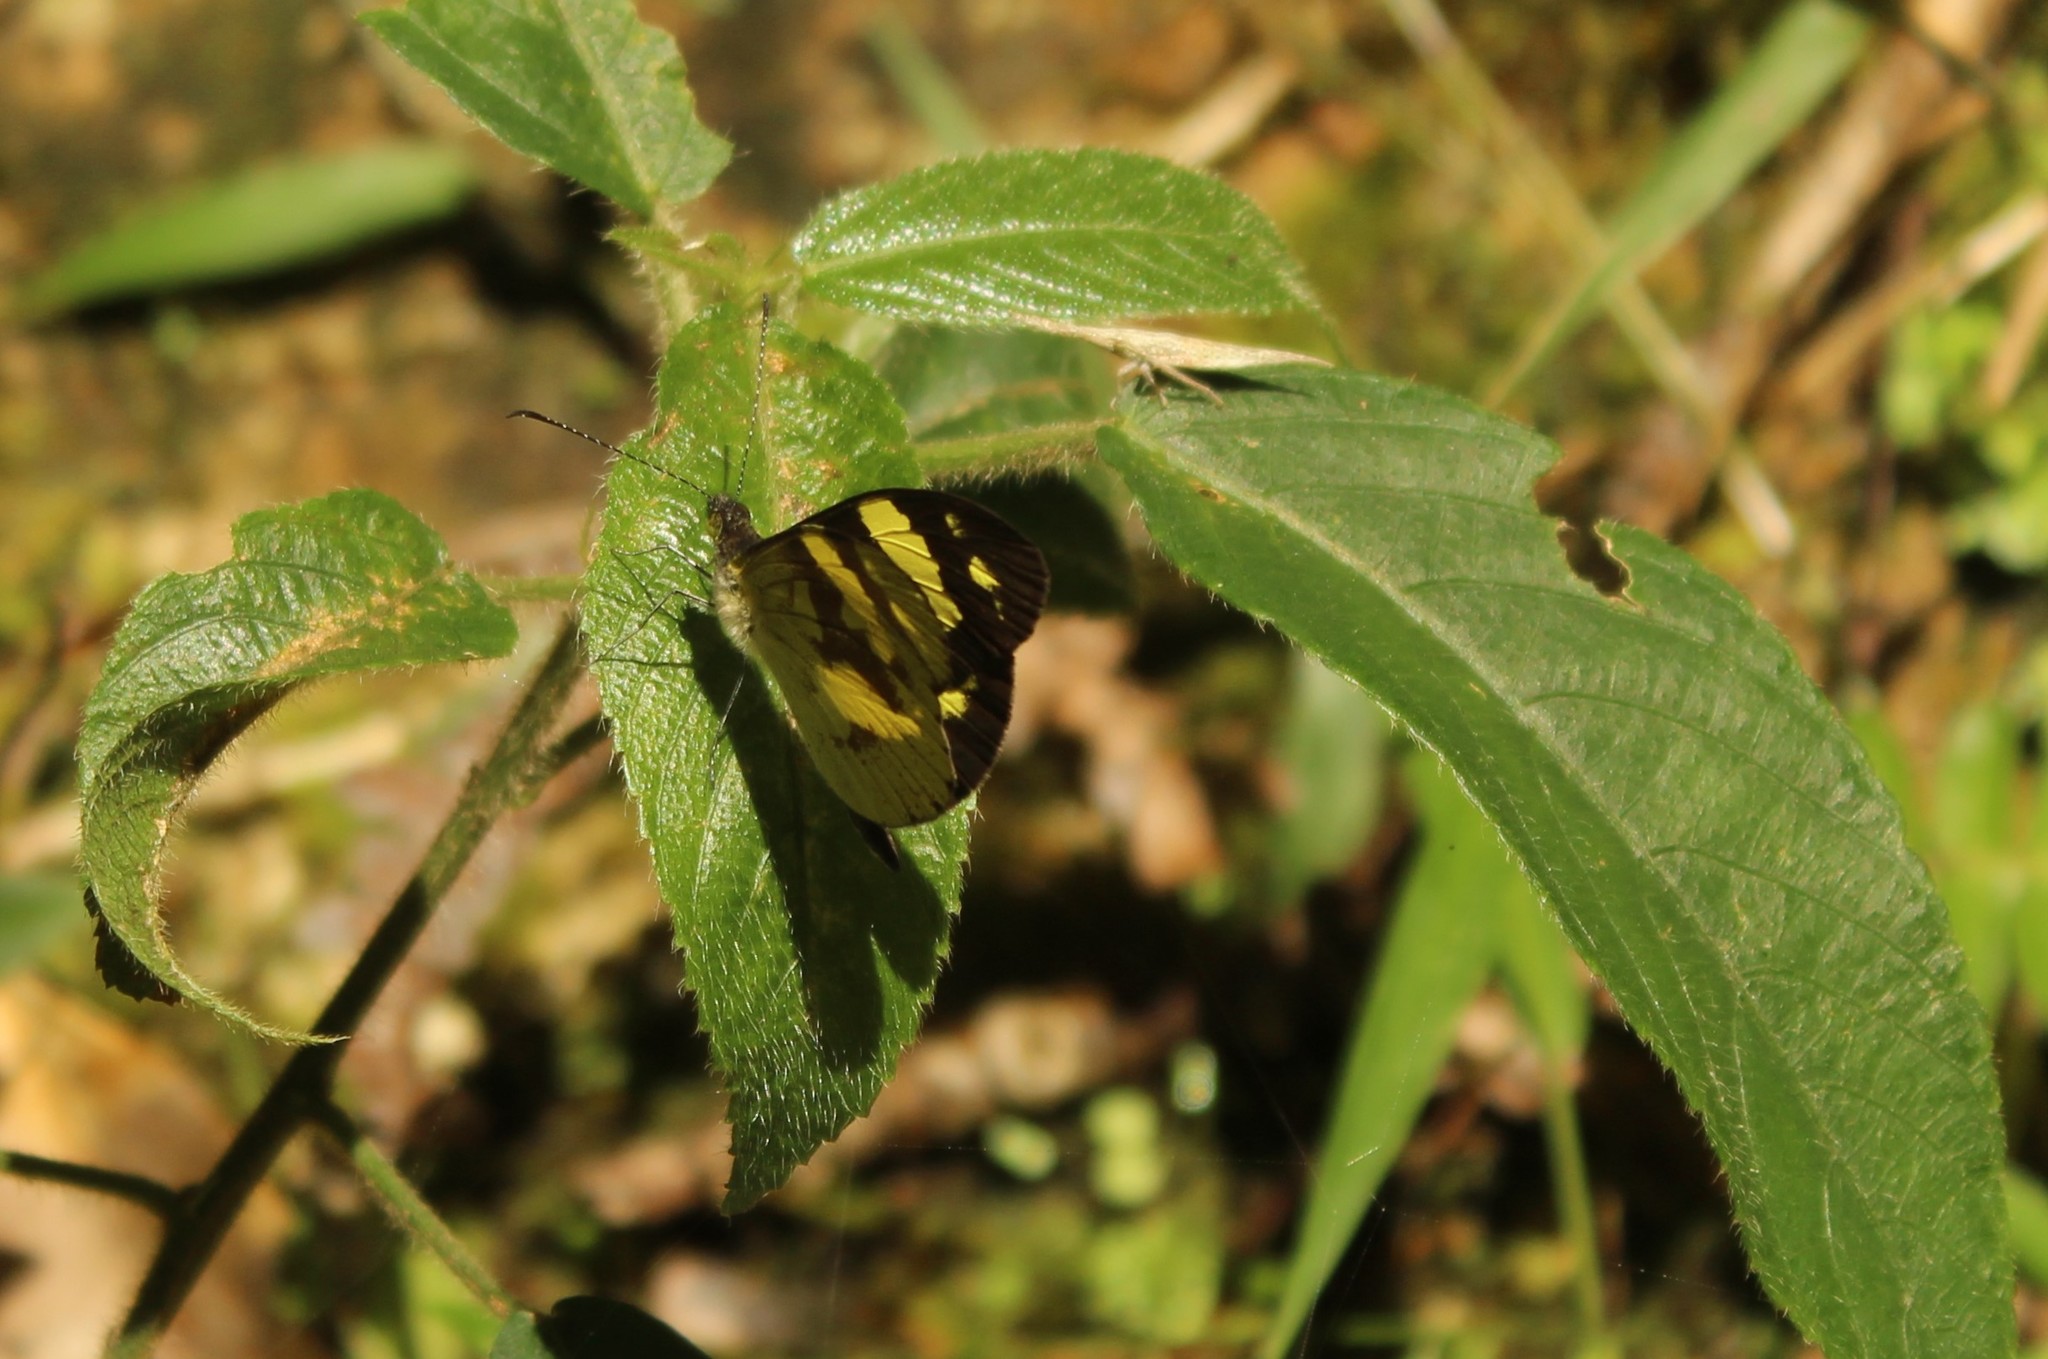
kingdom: Animalia
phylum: Arthropoda
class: Insecta
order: Lepidoptera
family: Pieridae
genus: Dismorphia
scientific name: Dismorphia medora
